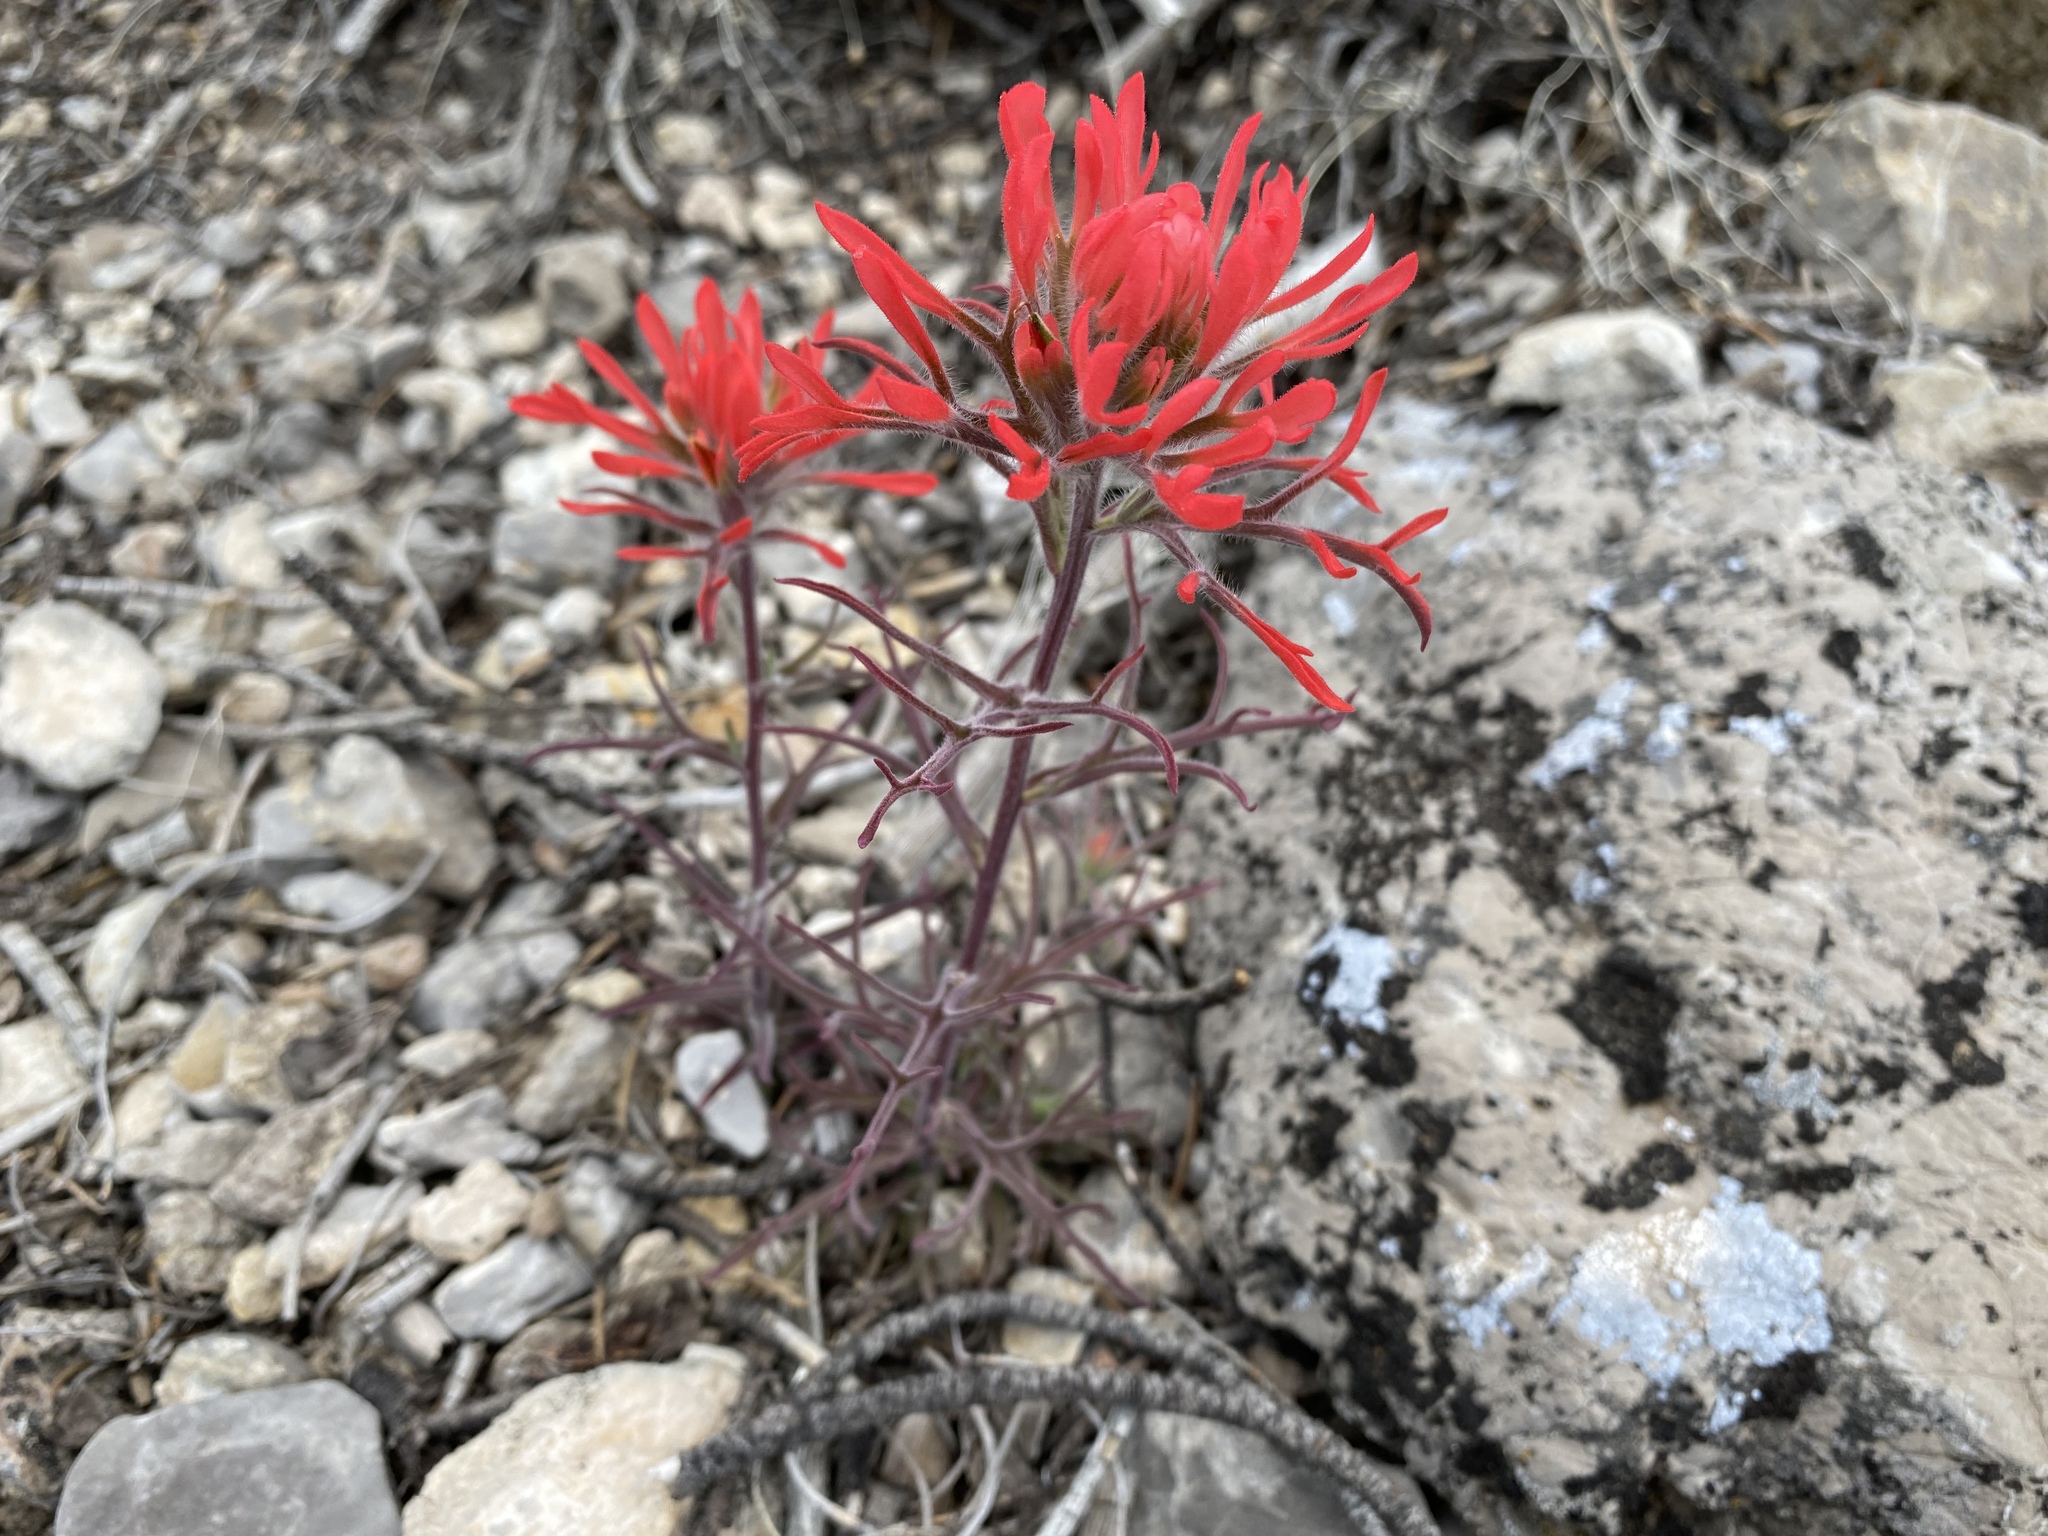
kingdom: Plantae
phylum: Tracheophyta
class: Magnoliopsida
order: Lamiales
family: Orobanchaceae
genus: Castilleja
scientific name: Castilleja chromosa
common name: Desert paintbrush
